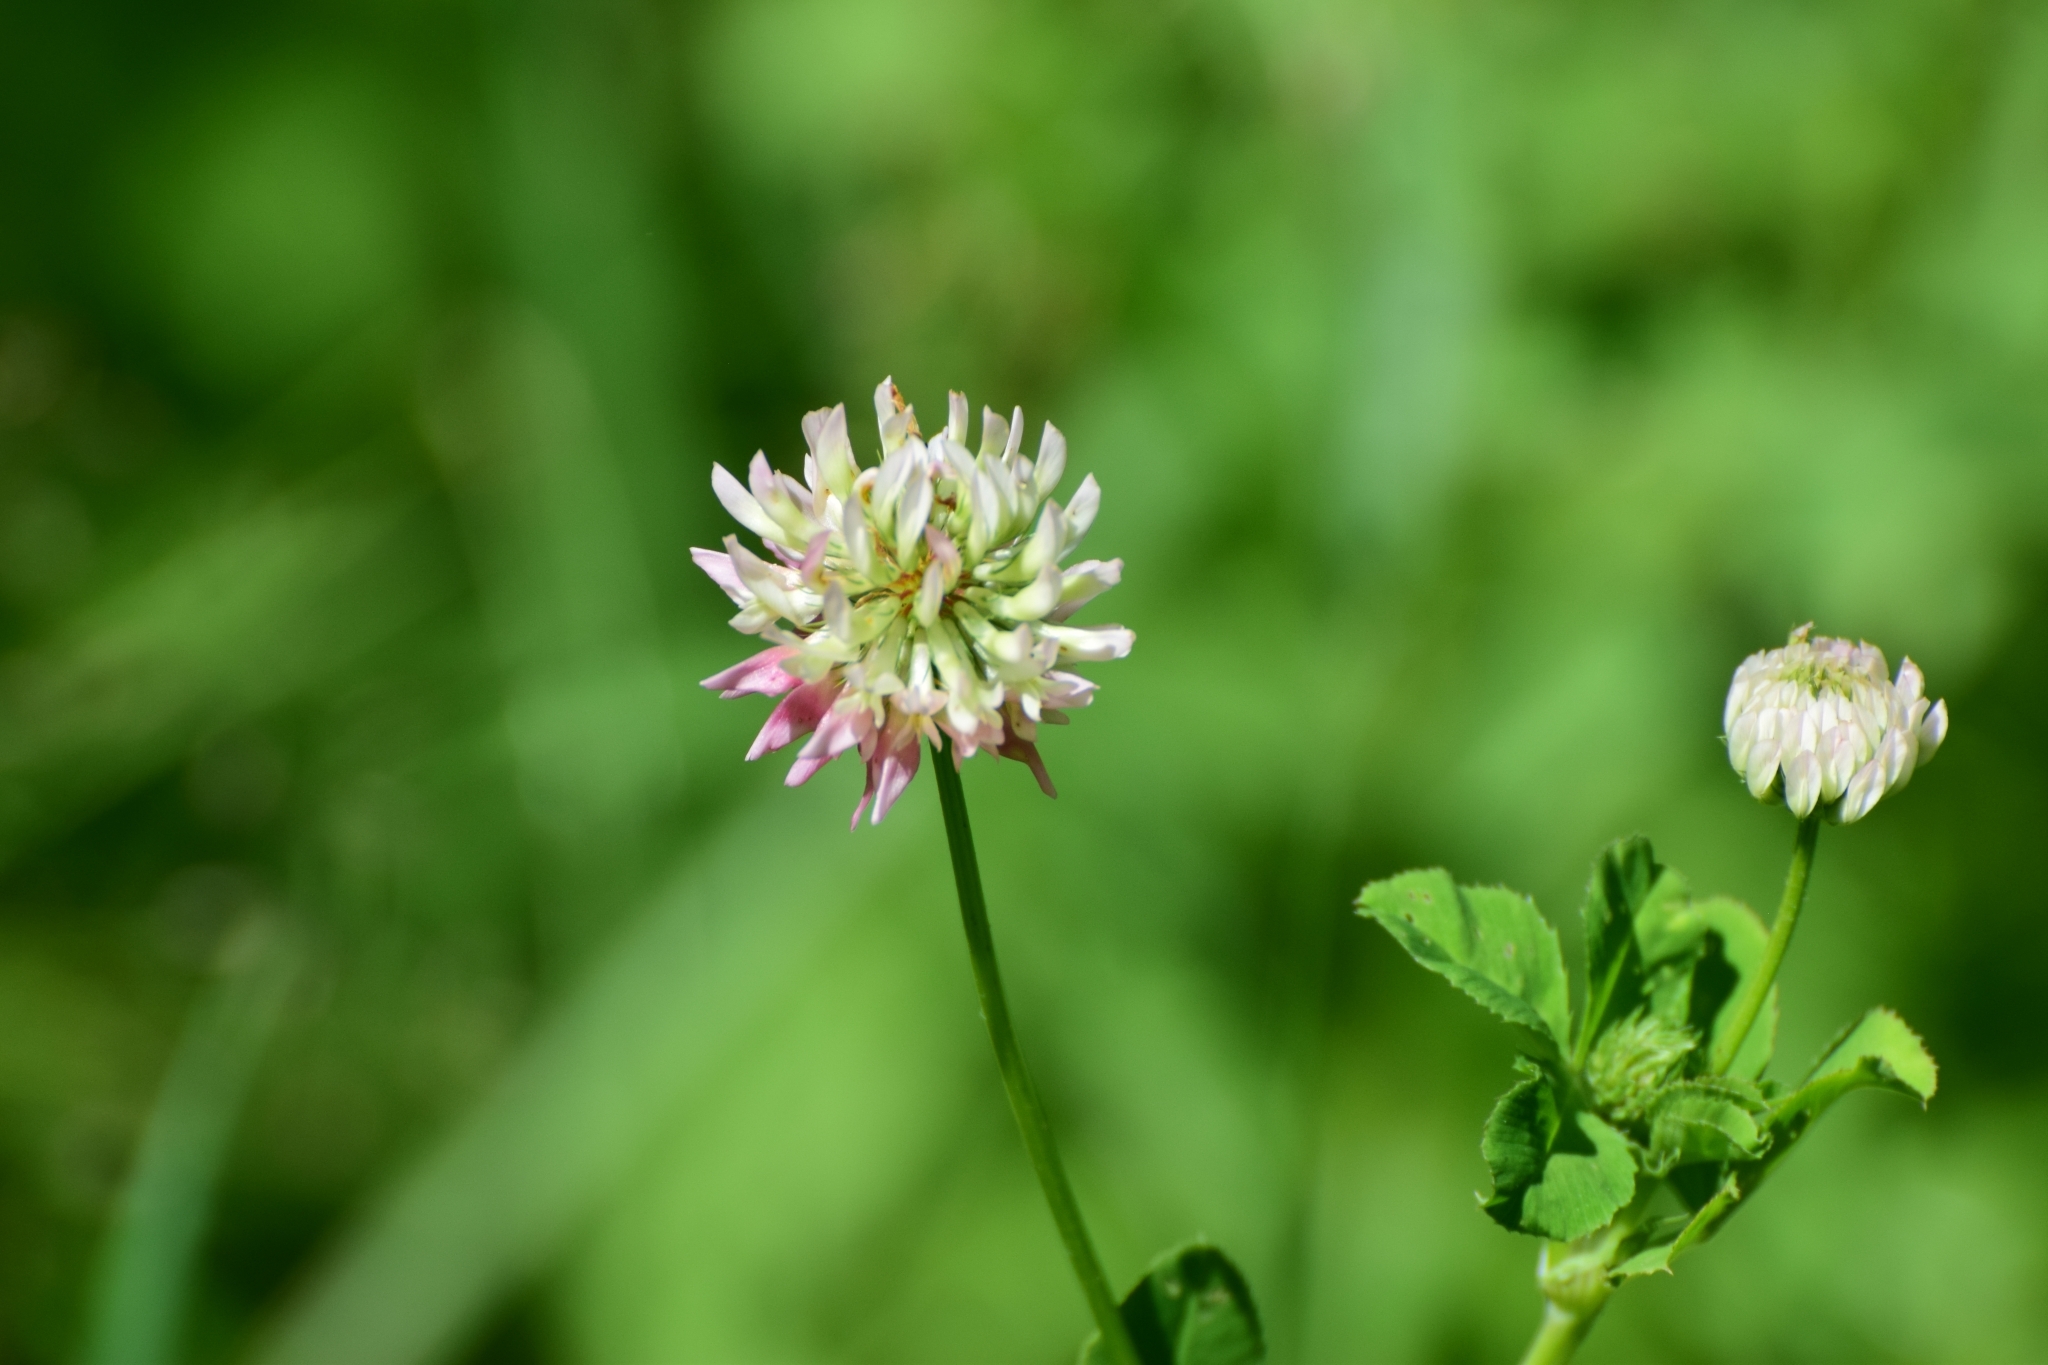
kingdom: Plantae
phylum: Tracheophyta
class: Magnoliopsida
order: Fabales
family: Fabaceae
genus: Trifolium
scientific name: Trifolium hybridum
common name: Alsike clover
